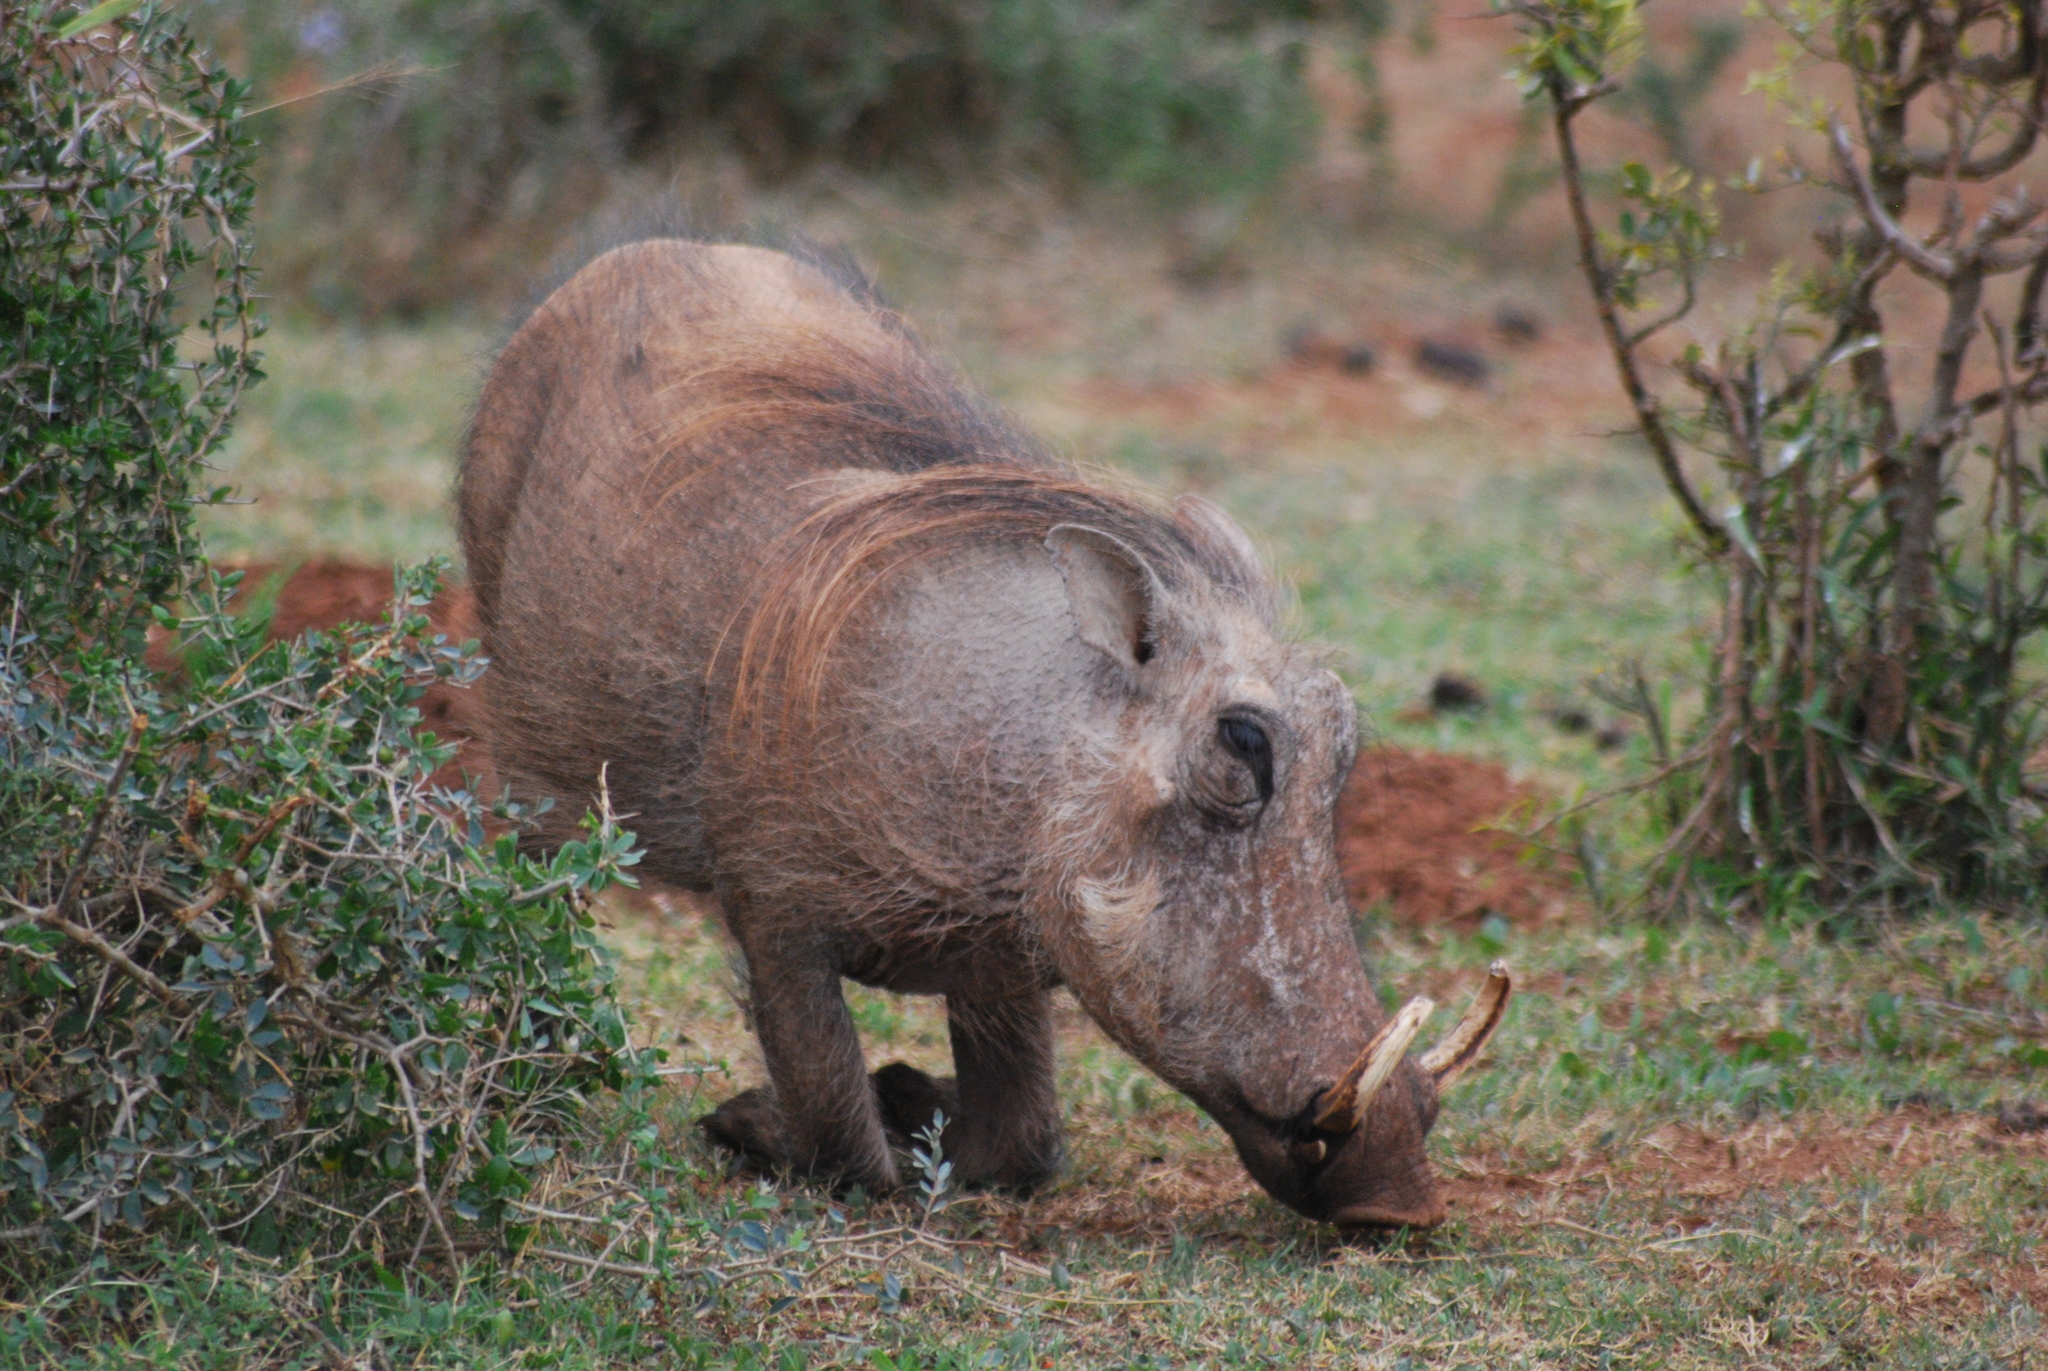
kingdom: Animalia
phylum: Chordata
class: Mammalia
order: Artiodactyla
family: Suidae
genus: Phacochoerus
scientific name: Phacochoerus africanus
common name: Common warthog
